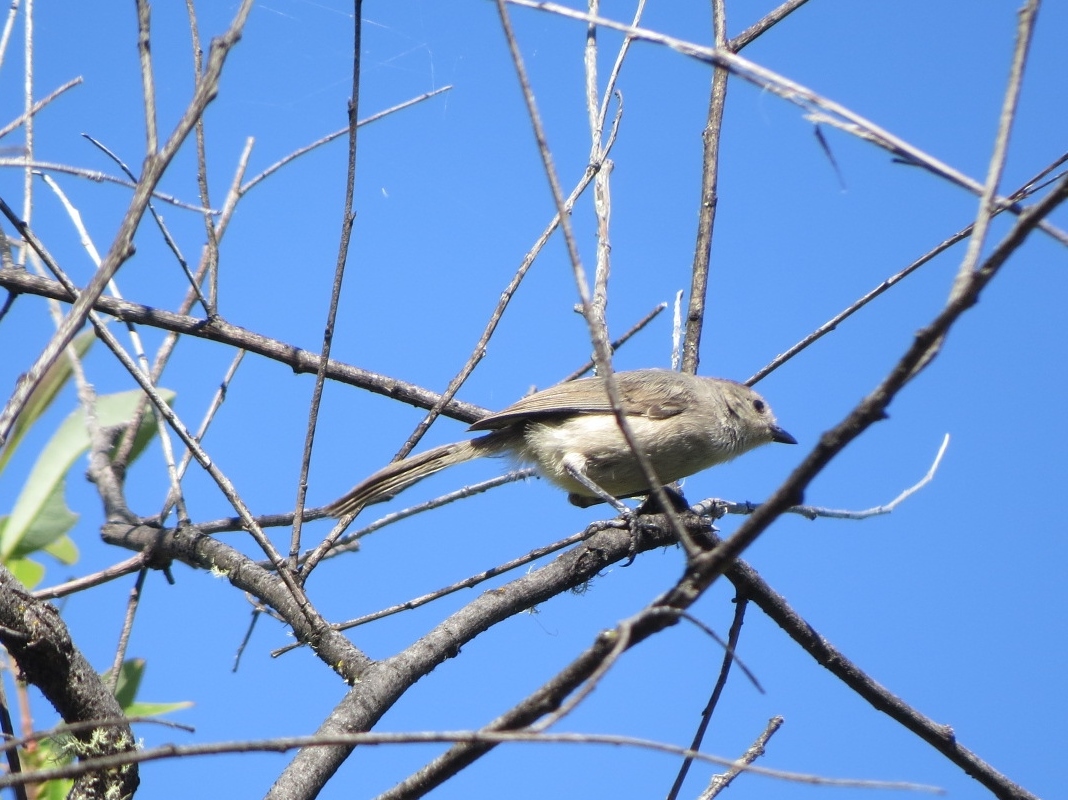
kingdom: Animalia
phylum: Chordata
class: Aves
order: Passeriformes
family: Aegithalidae
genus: Psaltriparus
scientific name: Psaltriparus minimus
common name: American bushtit
